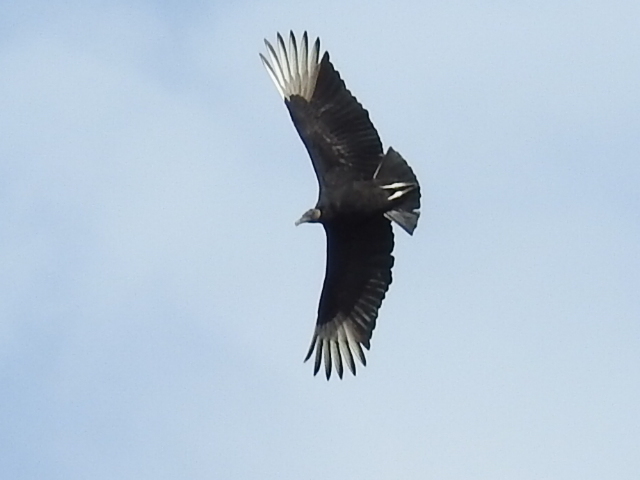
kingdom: Animalia
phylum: Chordata
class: Aves
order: Accipitriformes
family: Cathartidae
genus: Coragyps
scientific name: Coragyps atratus
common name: Black vulture
